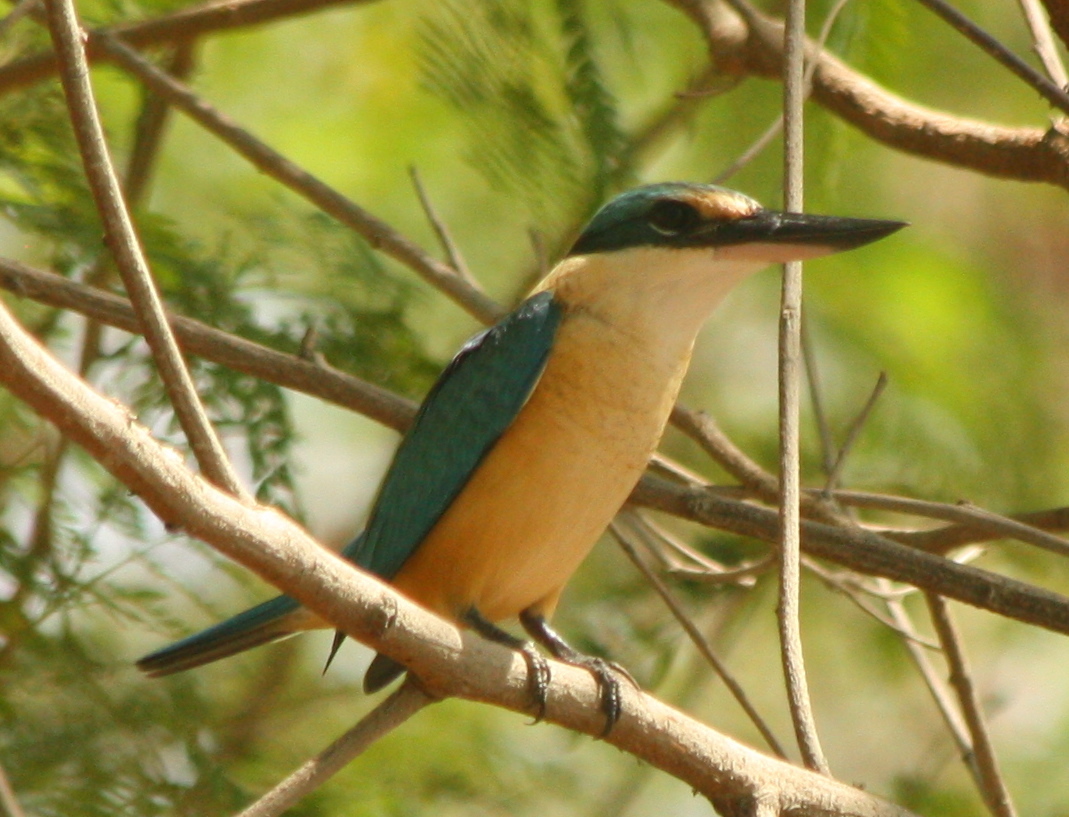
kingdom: Animalia
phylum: Chordata
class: Aves
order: Coraciiformes
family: Alcedinidae
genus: Todiramphus
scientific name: Todiramphus chloris
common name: Collared kingfisher
